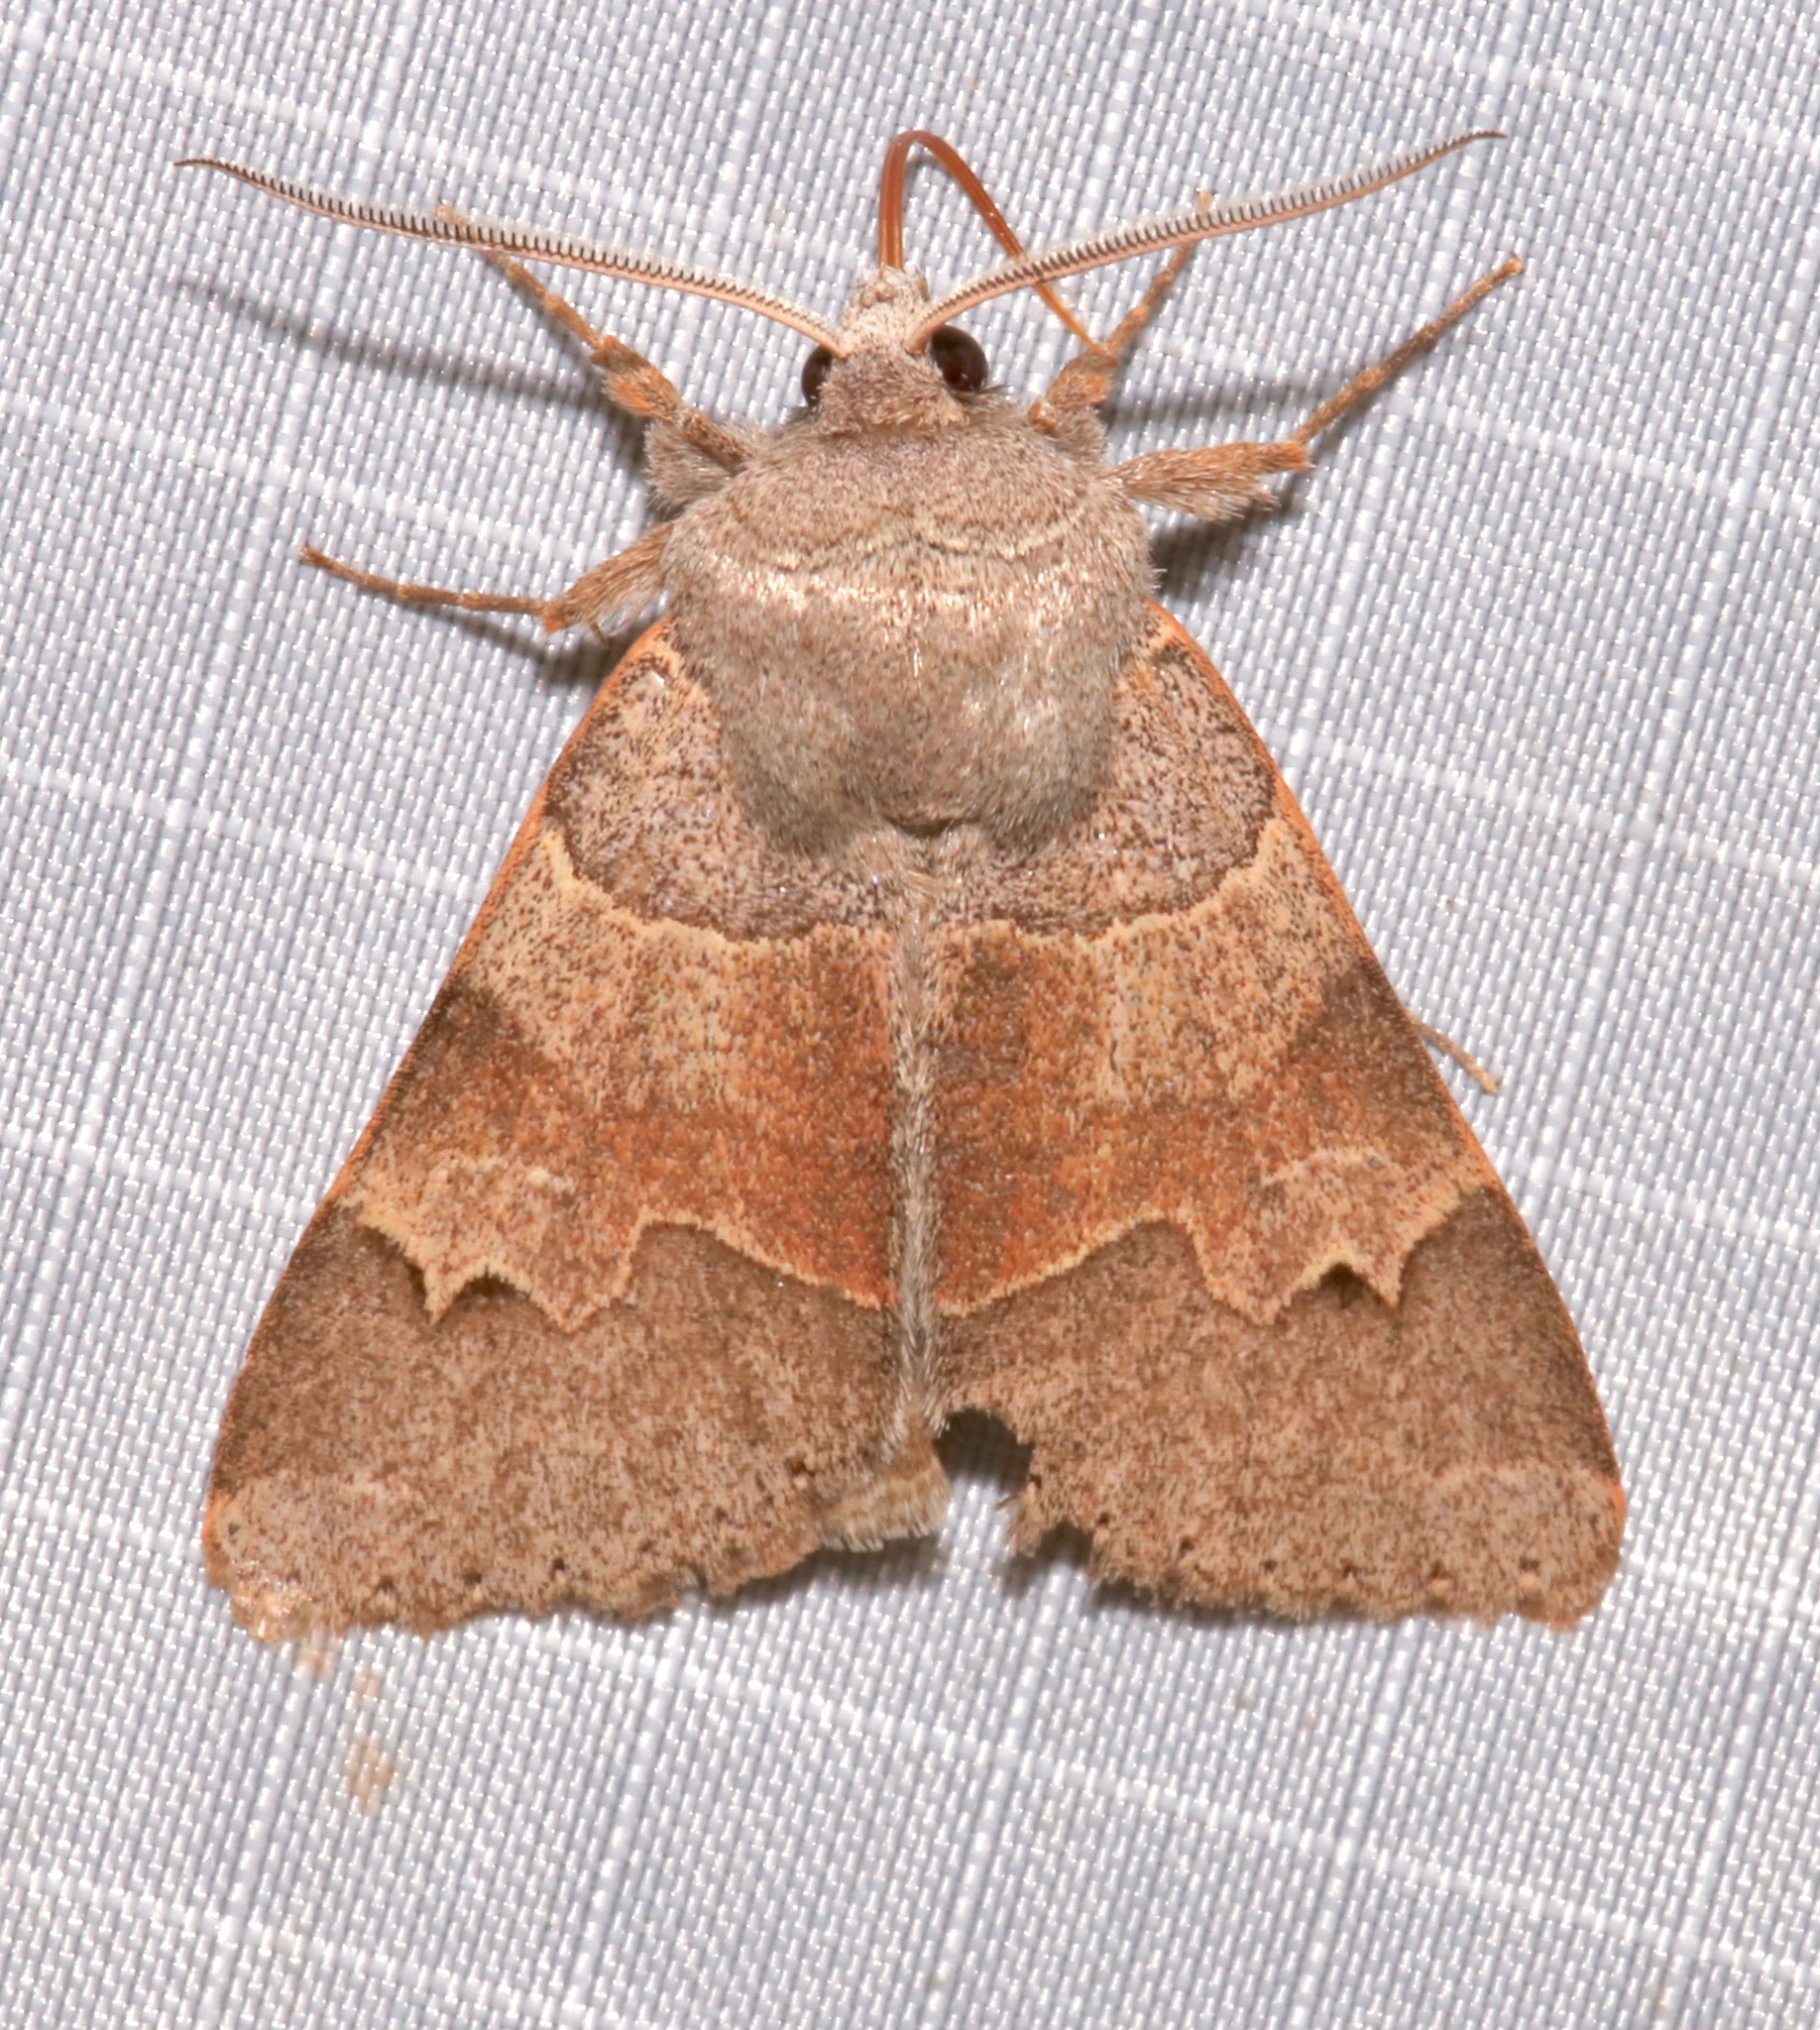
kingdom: Animalia
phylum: Arthropoda
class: Insecta
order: Lepidoptera
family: Erebidae
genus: Ulosyneda
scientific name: Ulosyneda valens
